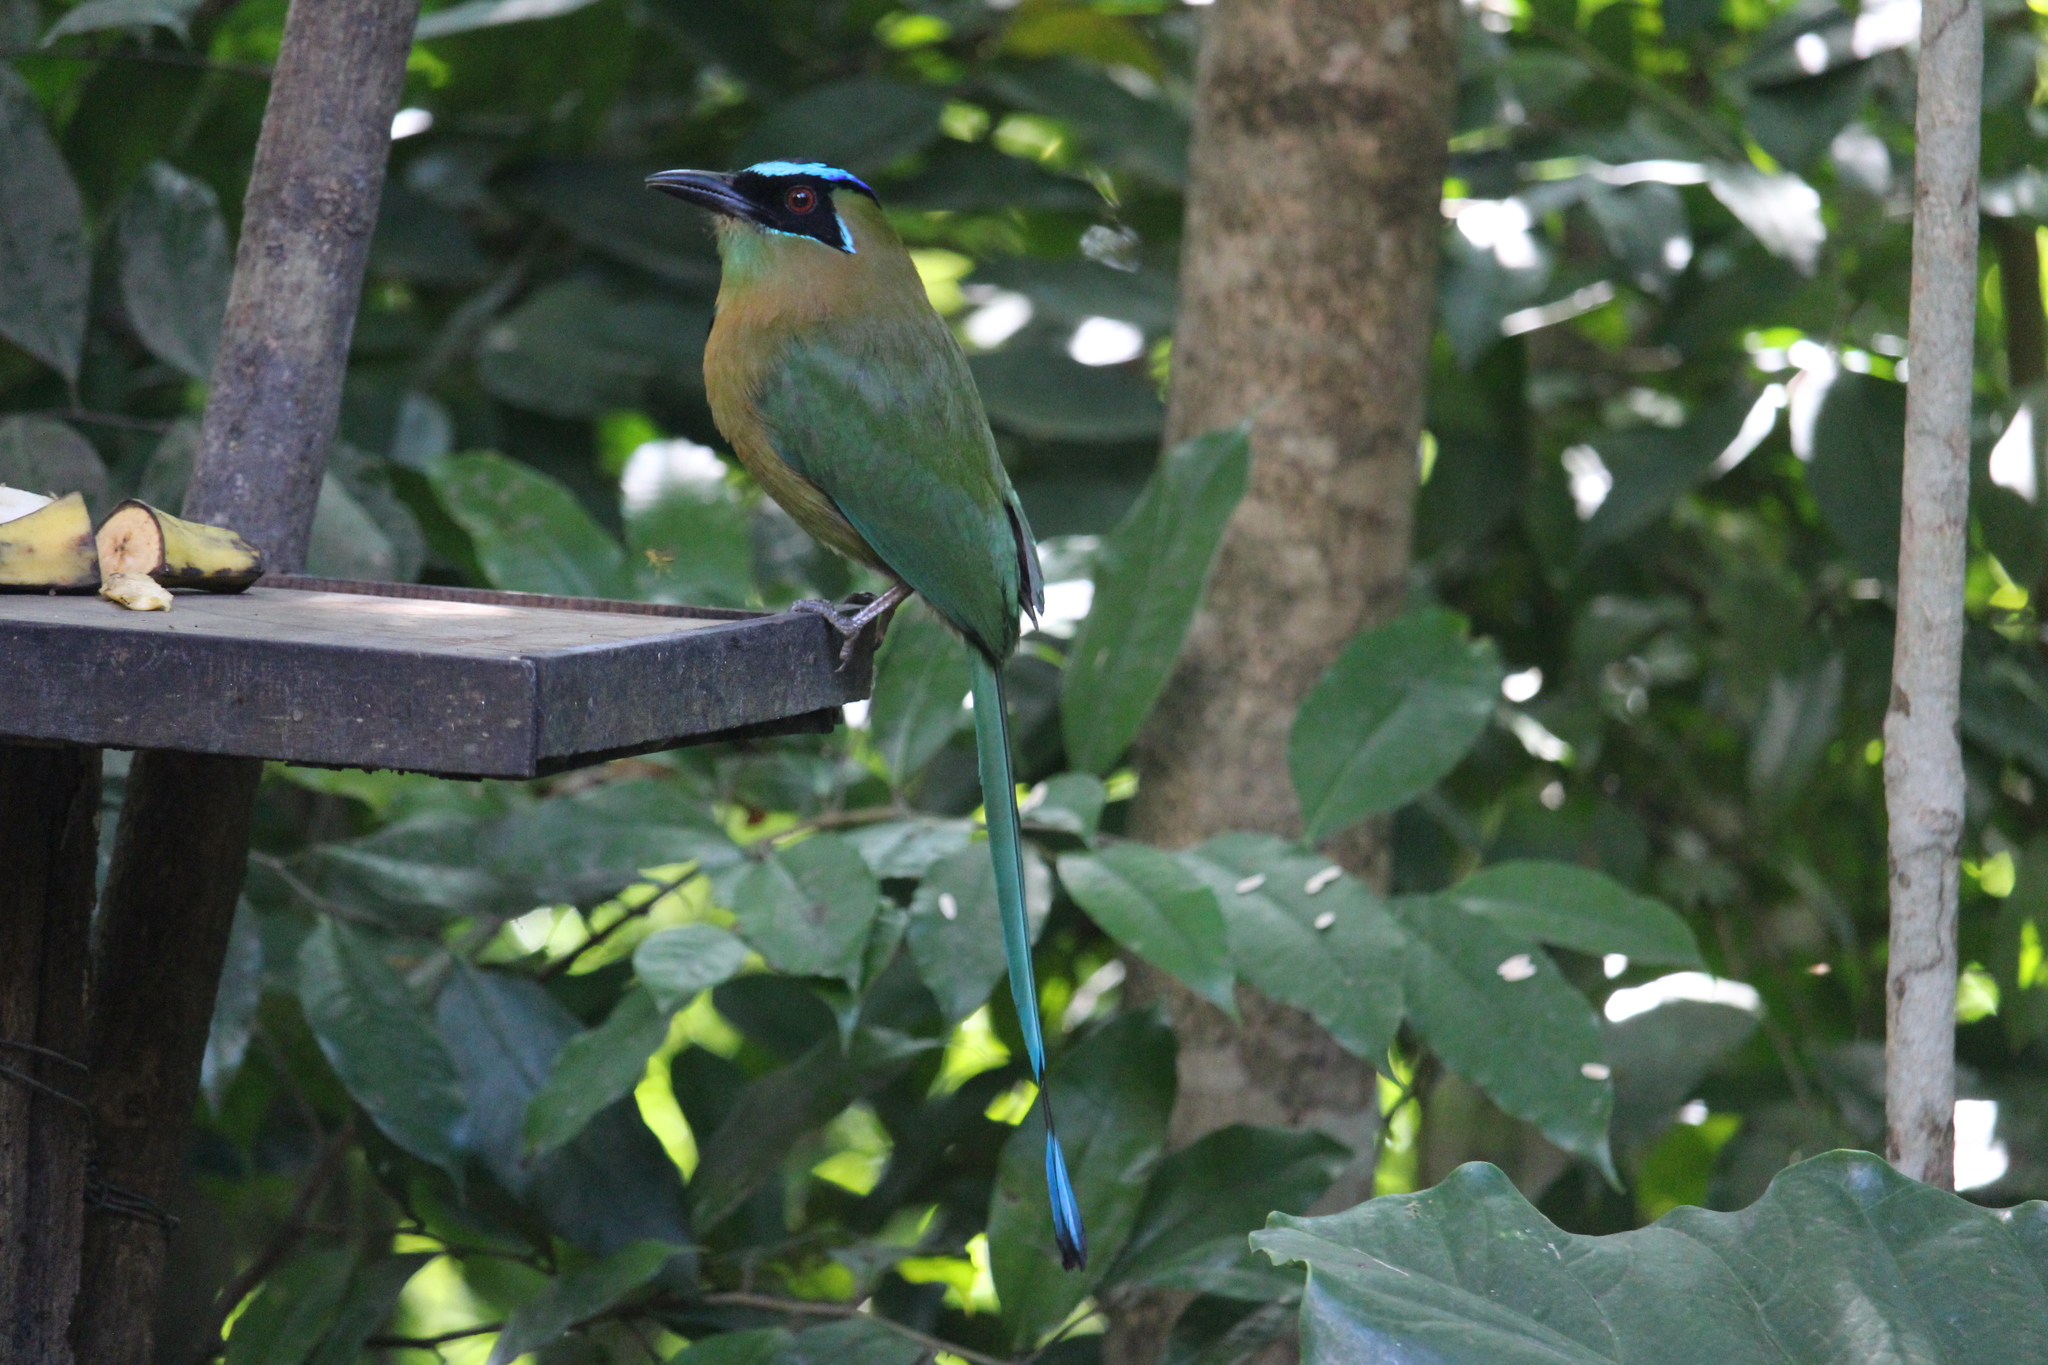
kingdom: Animalia
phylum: Chordata
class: Aves
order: Coraciiformes
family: Momotidae
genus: Momotus
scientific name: Momotus lessonii
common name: Lesson's motmot
